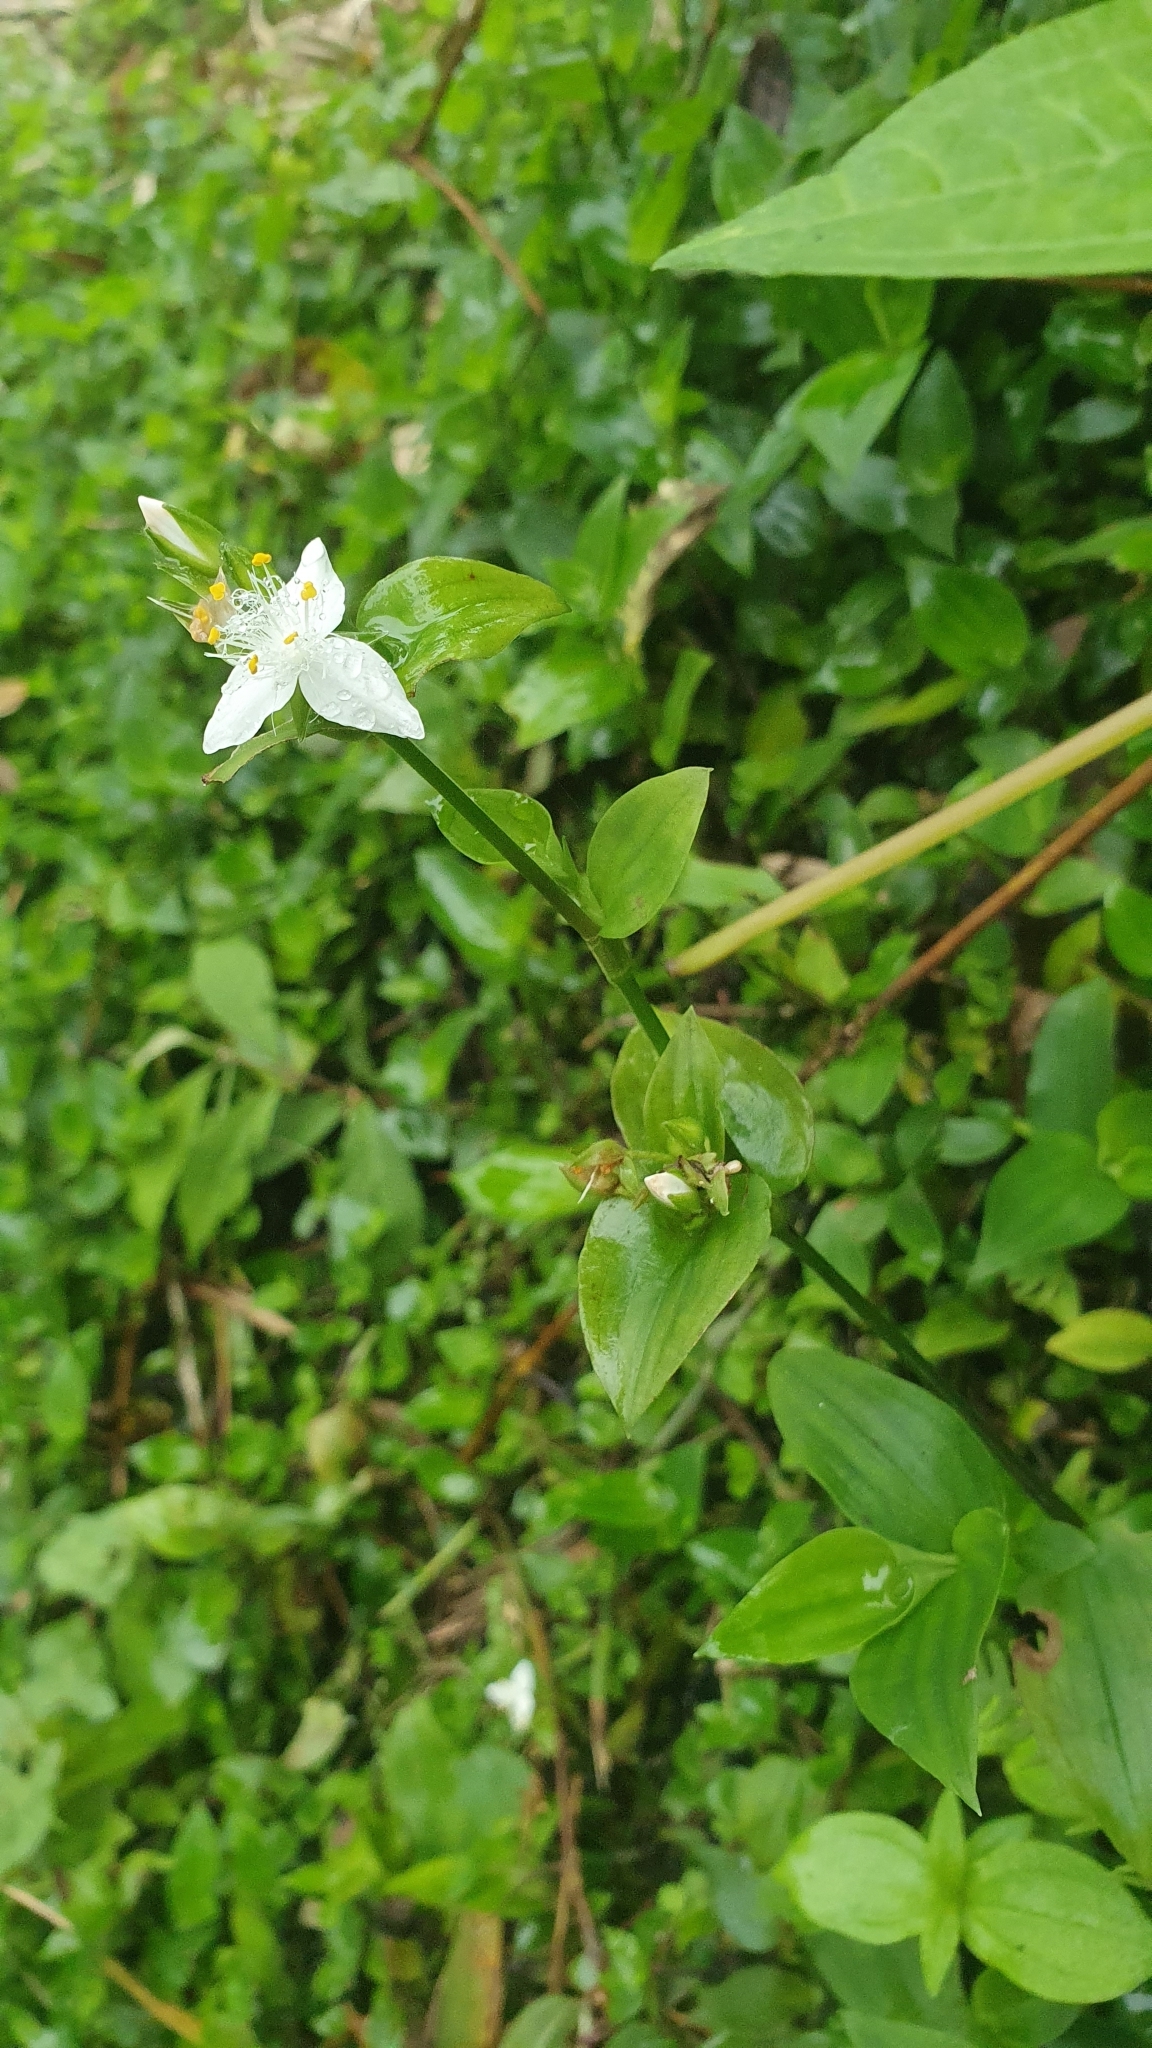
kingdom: Plantae
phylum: Tracheophyta
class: Liliopsida
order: Commelinales
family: Commelinaceae
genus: Tradescantia
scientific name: Tradescantia fluminensis
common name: Wandering-jew
